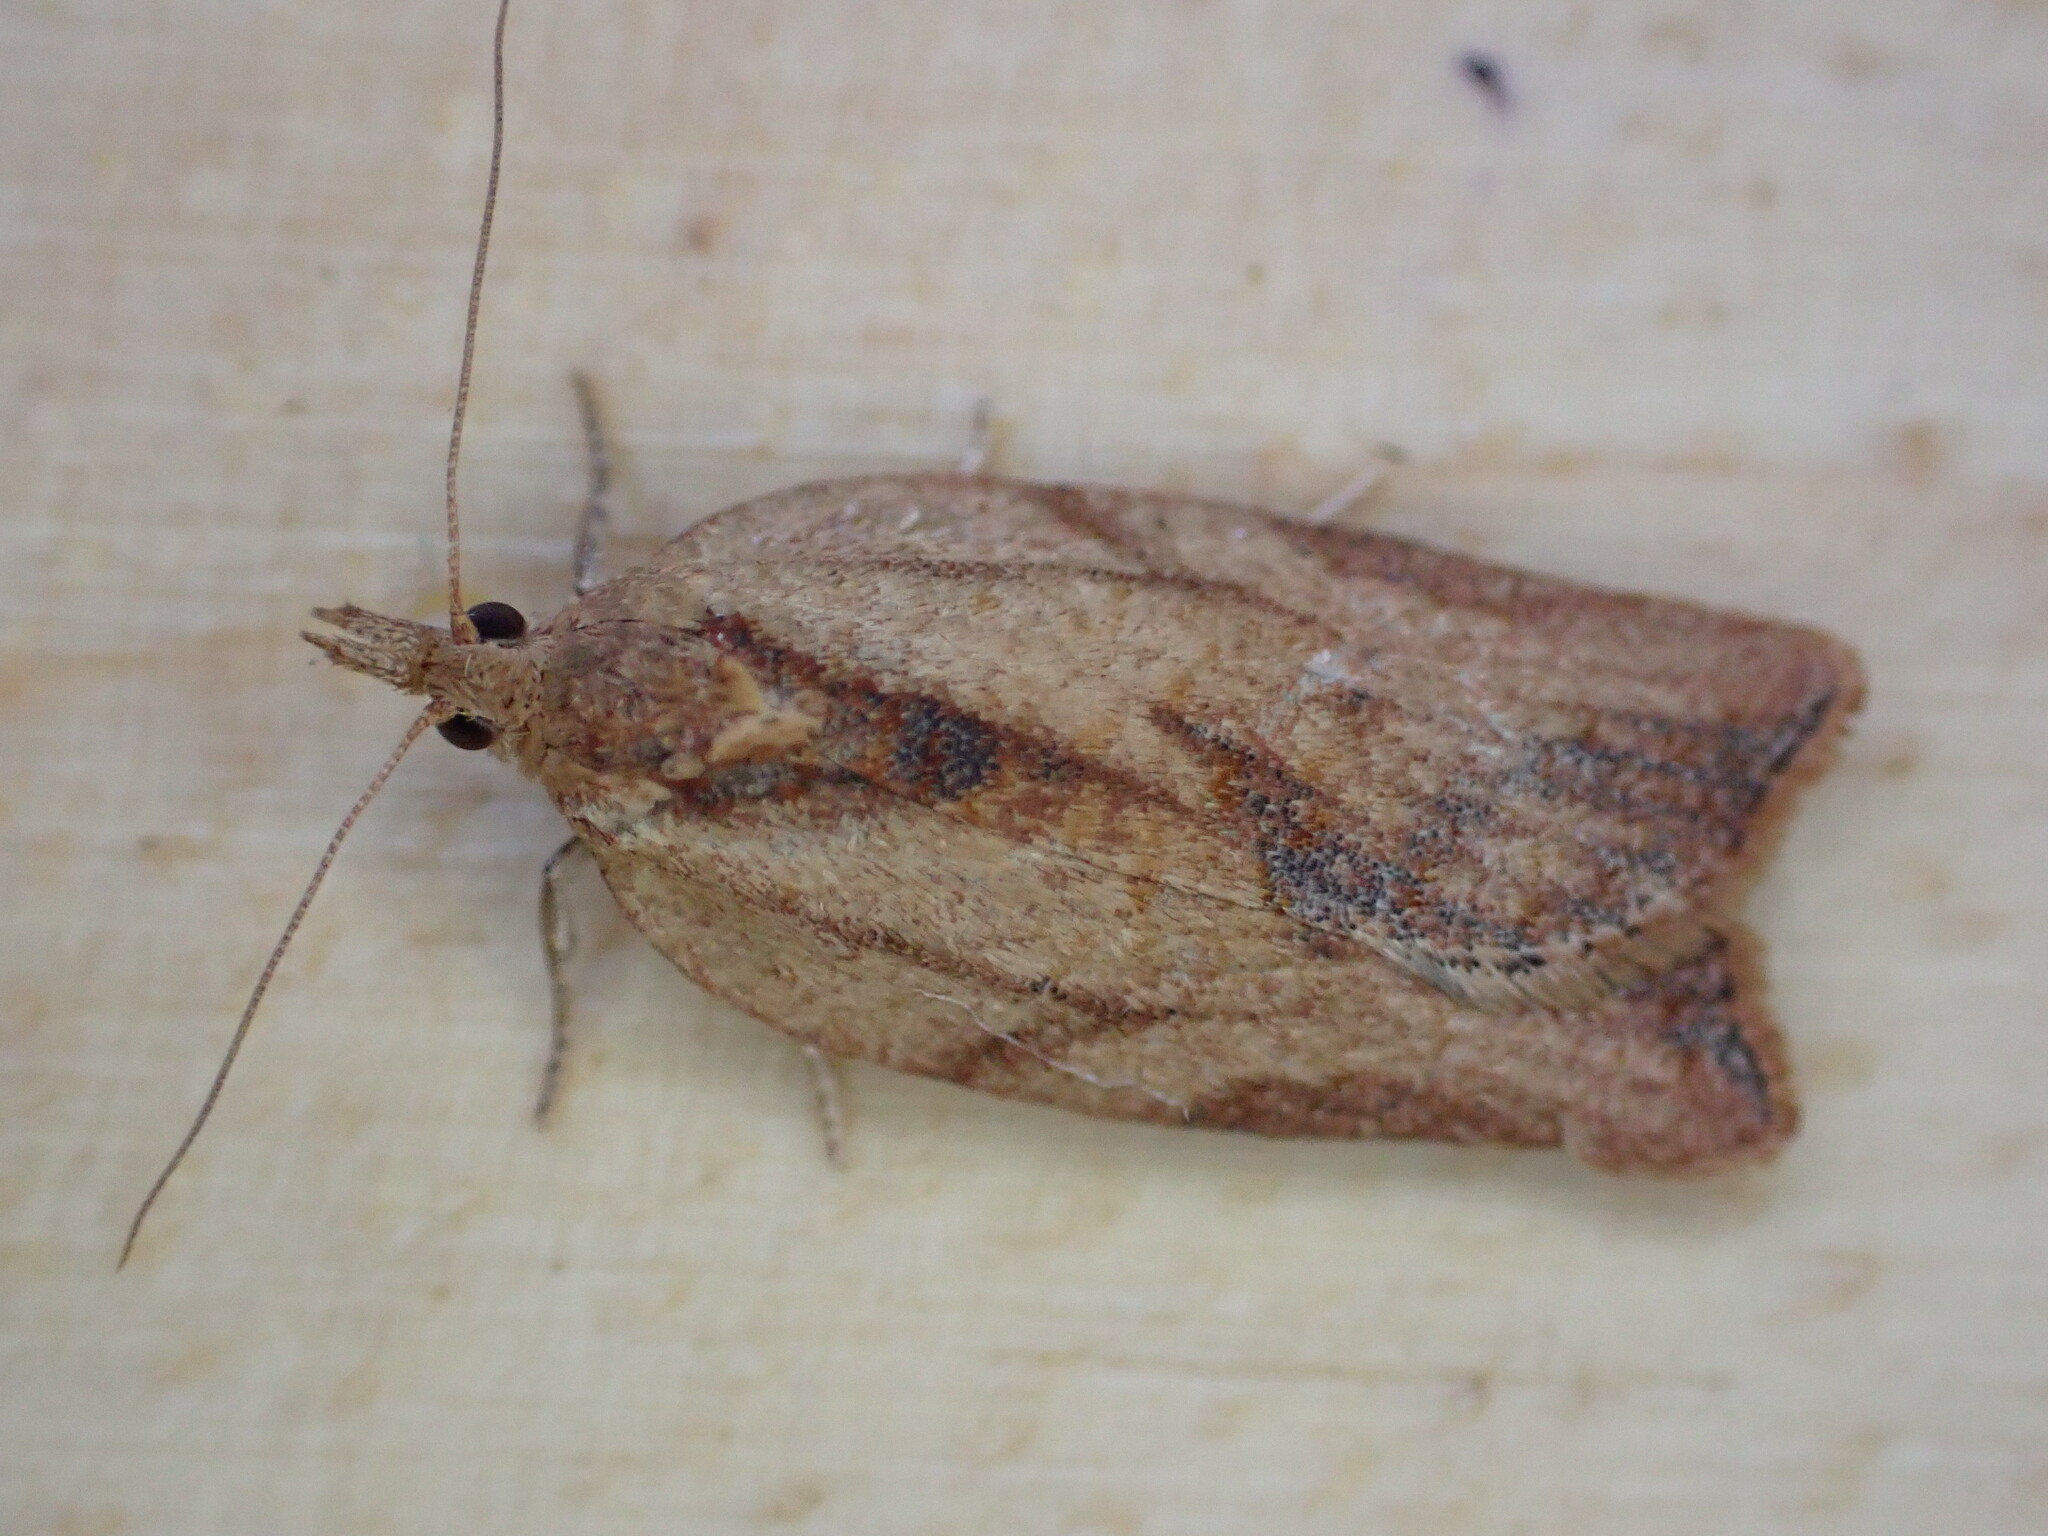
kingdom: Animalia
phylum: Arthropoda
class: Insecta
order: Lepidoptera
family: Tortricidae
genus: Epiphyas
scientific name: Epiphyas postvittana
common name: Light brown apple moth
